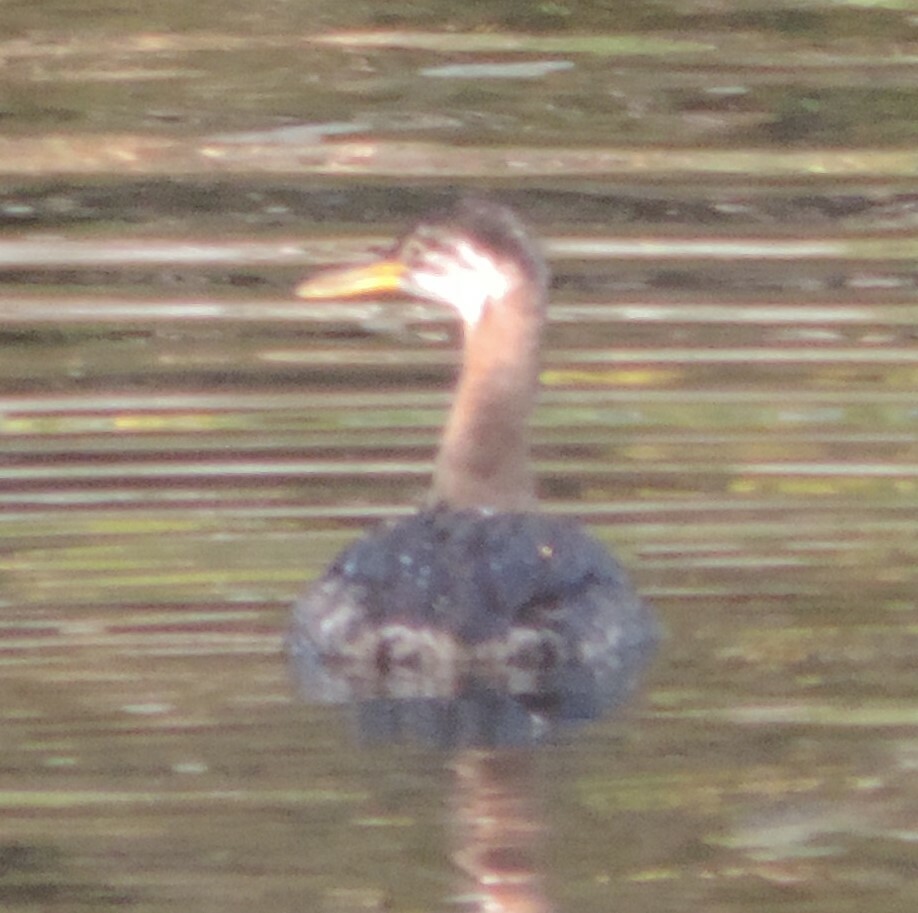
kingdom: Animalia
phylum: Chordata
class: Aves
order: Podicipediformes
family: Podicipedidae
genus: Podiceps
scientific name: Podiceps grisegena
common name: Red-necked grebe
